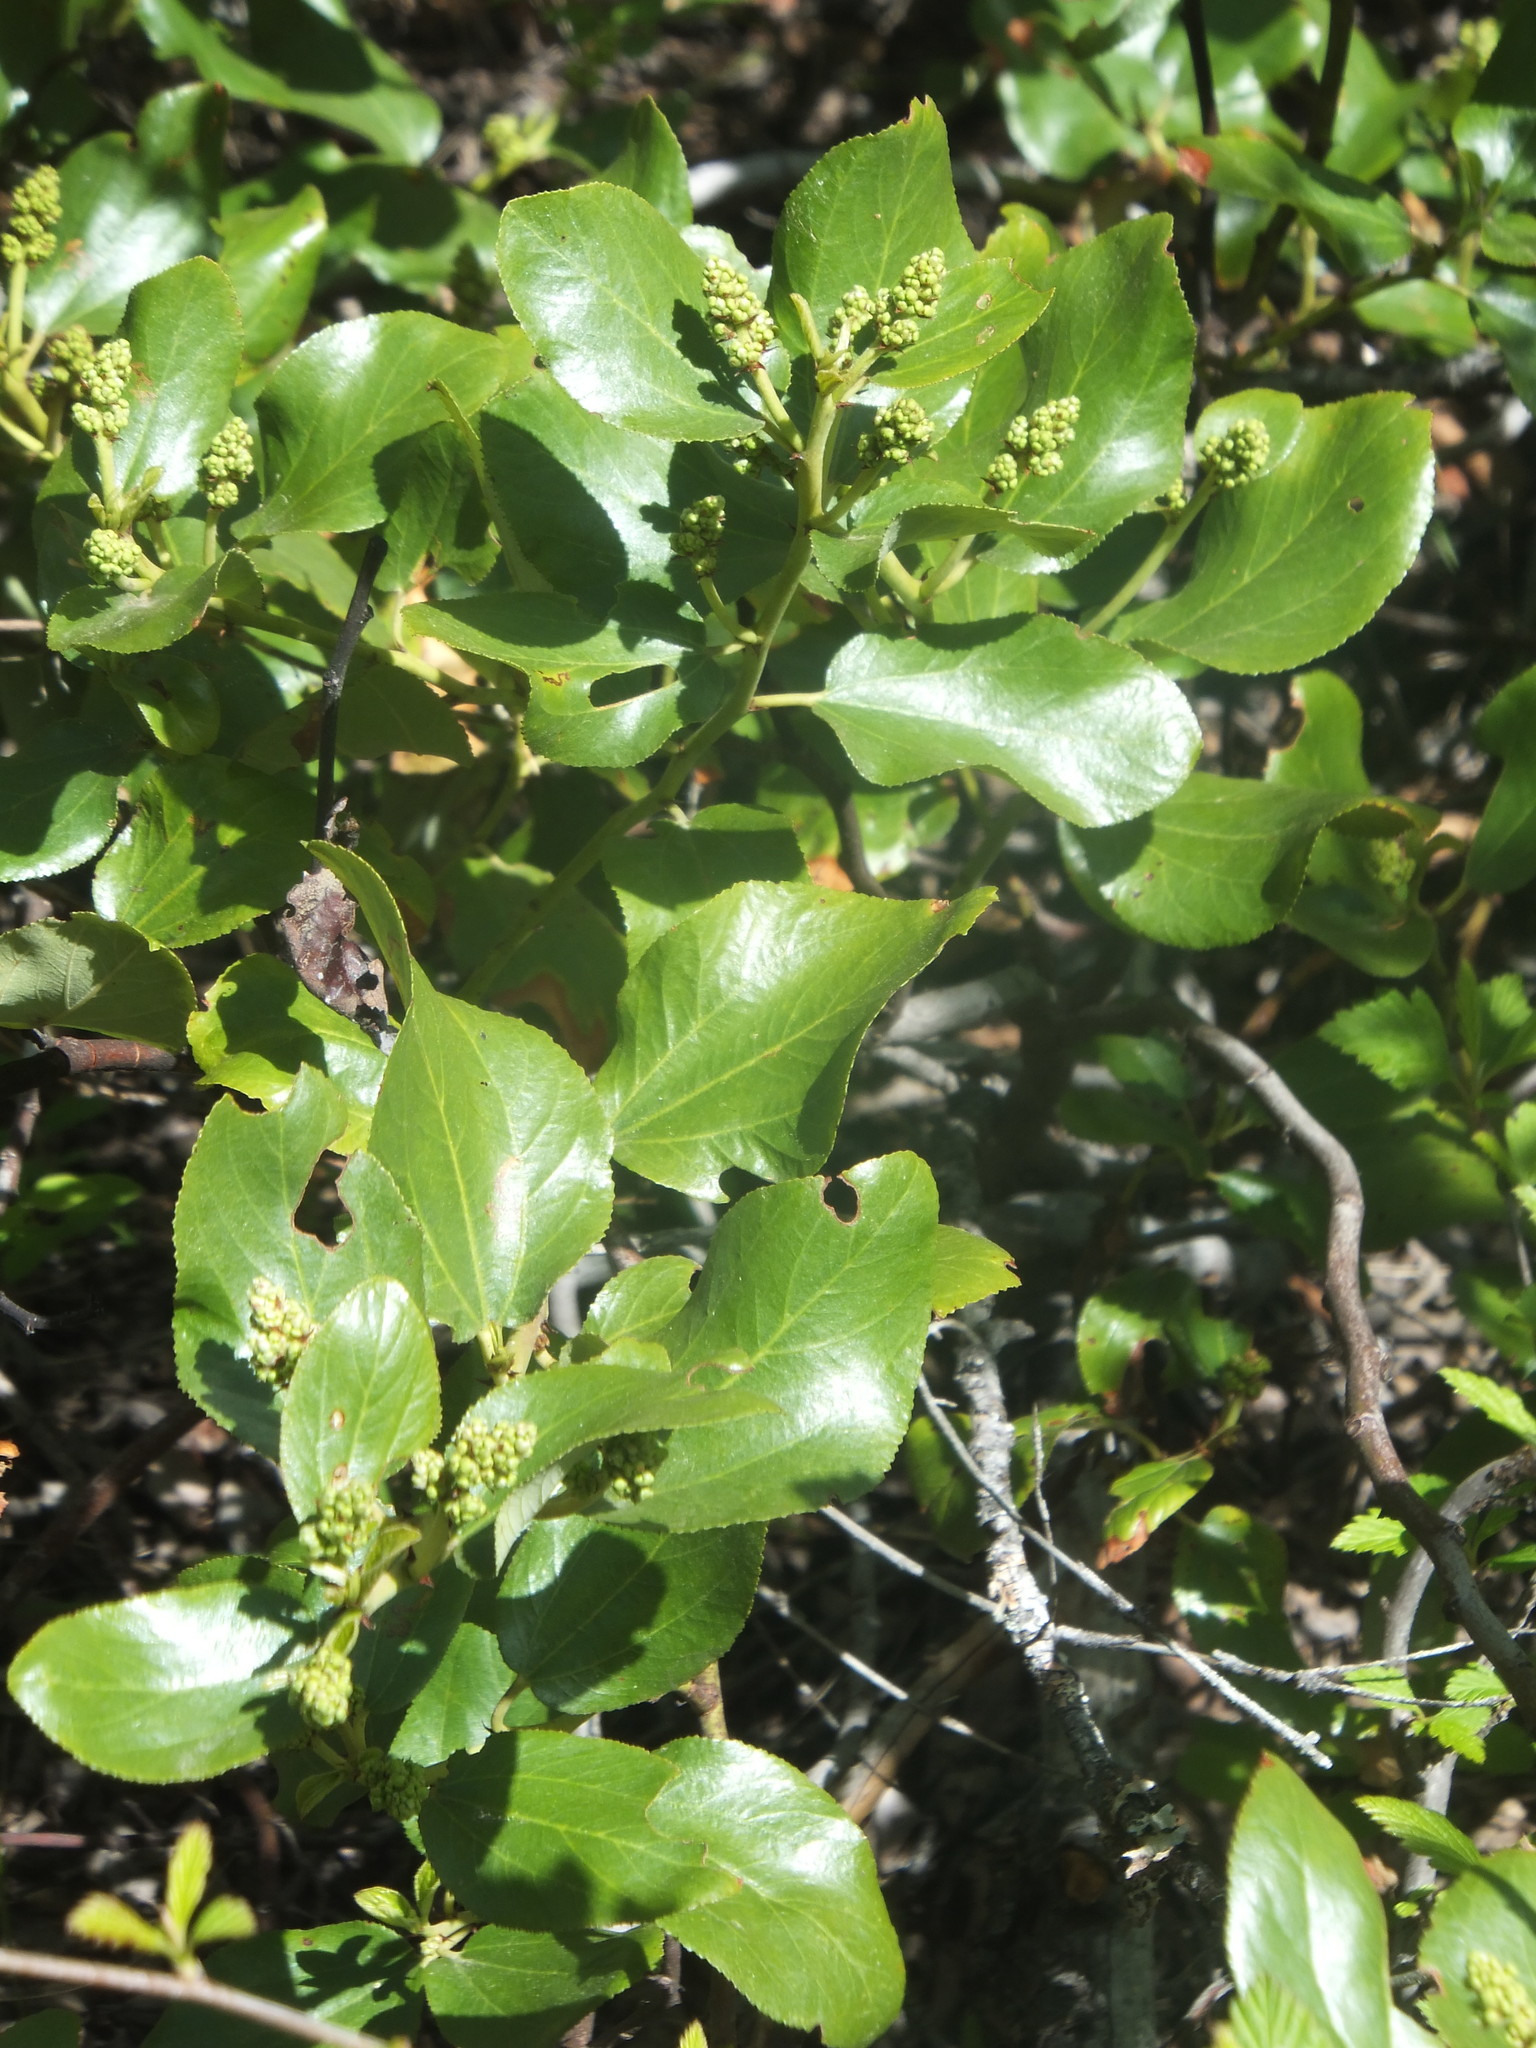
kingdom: Plantae
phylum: Tracheophyta
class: Magnoliopsida
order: Rosales
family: Rhamnaceae
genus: Ceanothus
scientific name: Ceanothus velutinus
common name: Snowbrush
